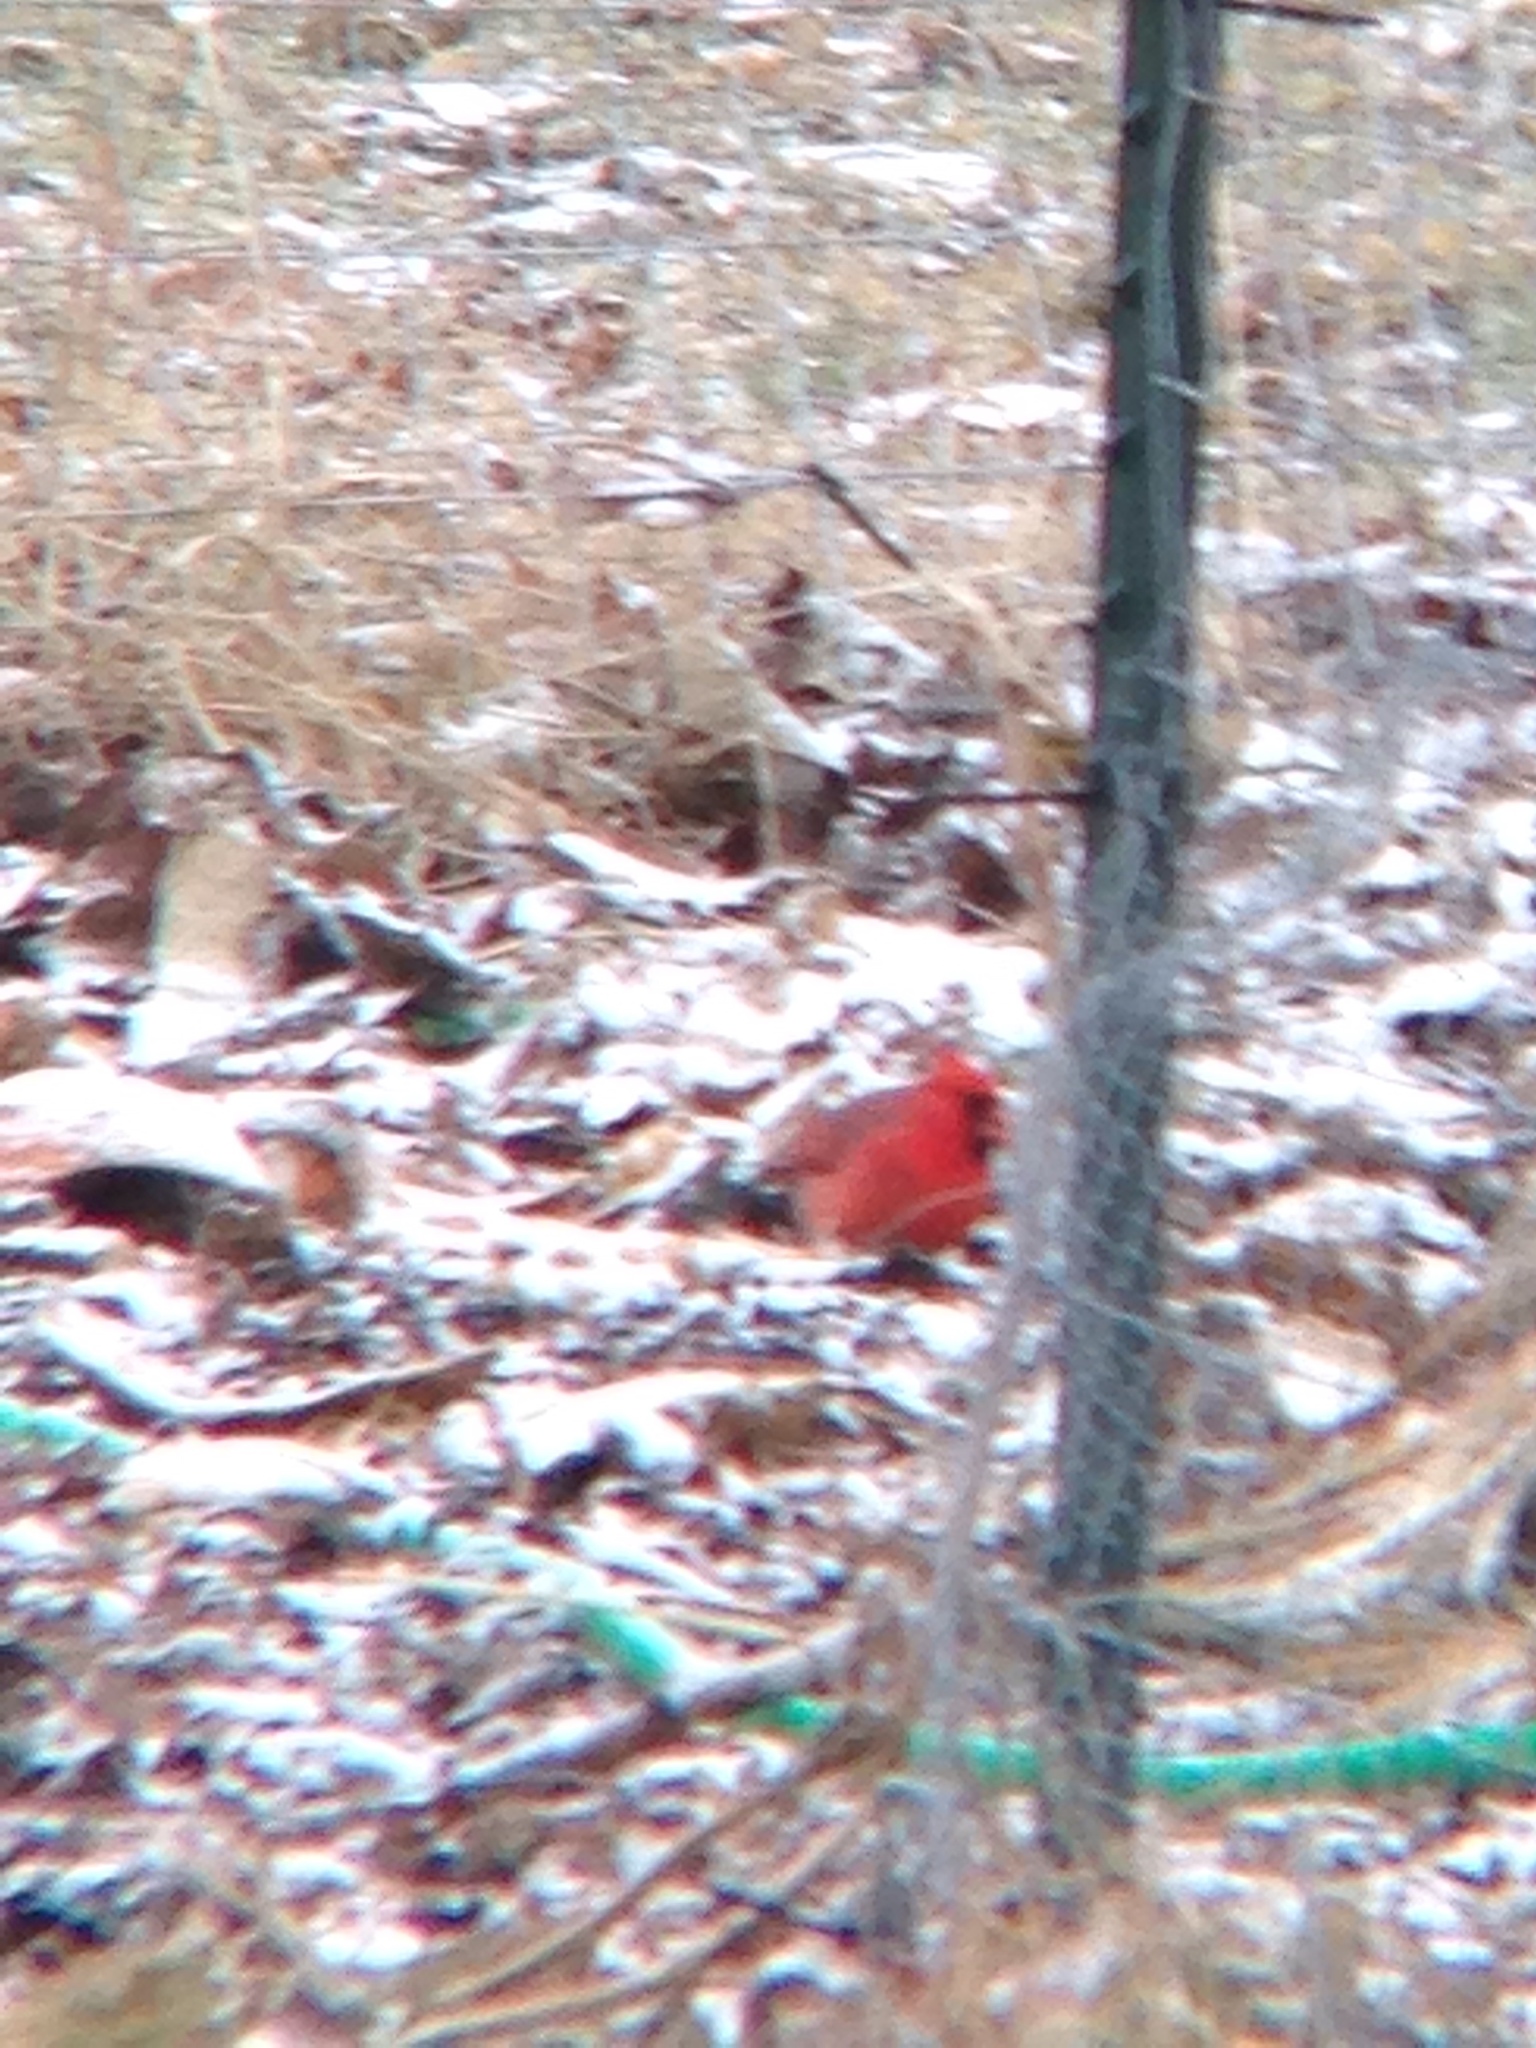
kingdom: Animalia
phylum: Chordata
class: Aves
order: Passeriformes
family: Cardinalidae
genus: Cardinalis
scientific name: Cardinalis cardinalis
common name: Northern cardinal
